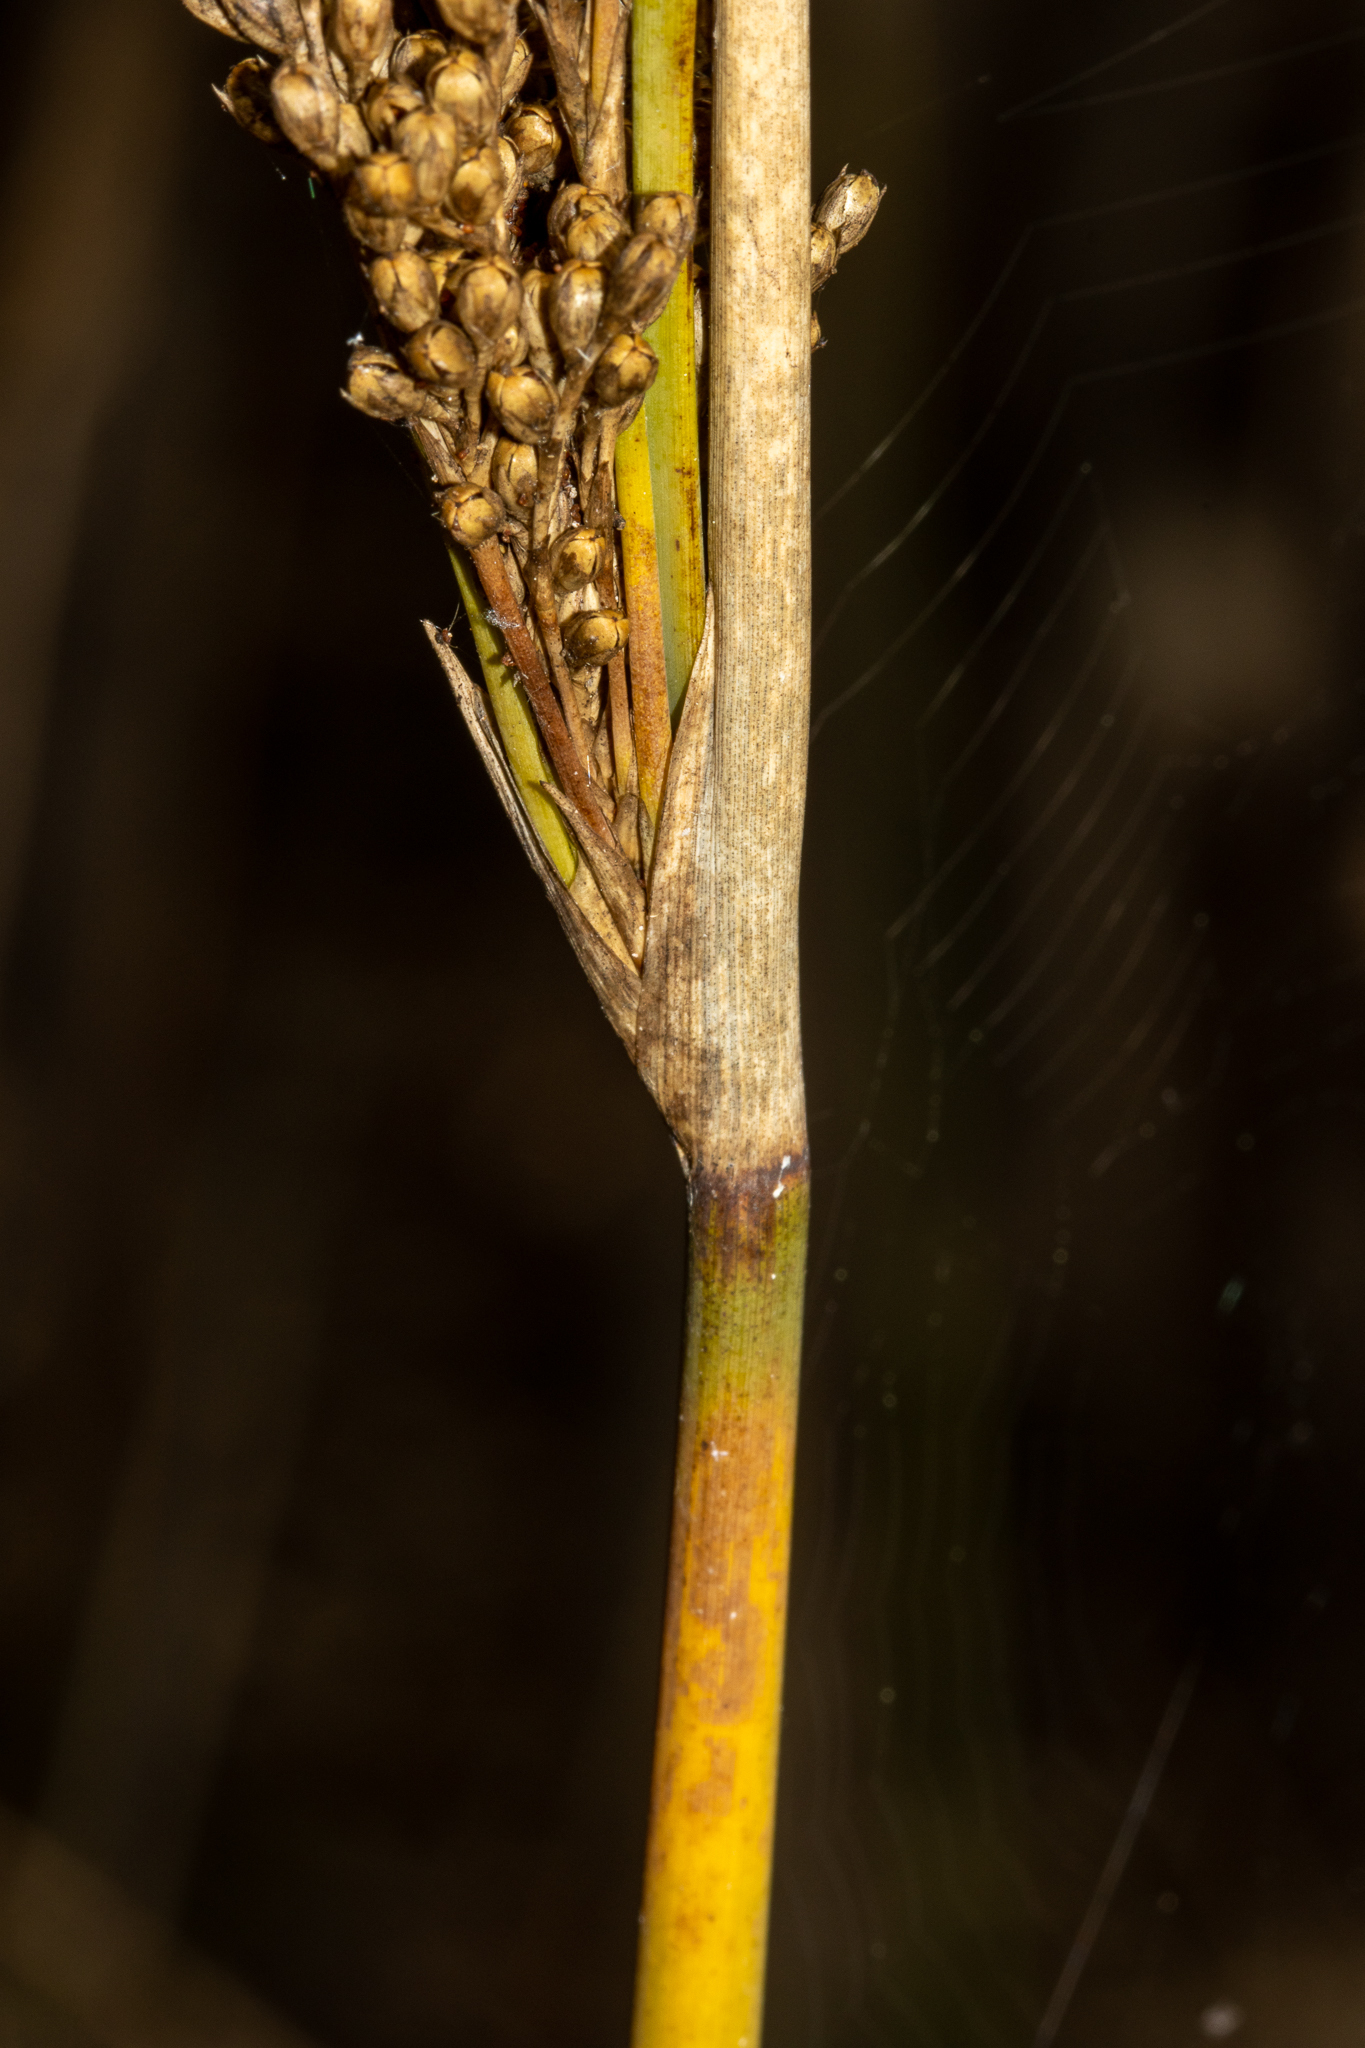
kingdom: Plantae
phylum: Tracheophyta
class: Liliopsida
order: Poales
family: Juncaceae
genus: Juncus
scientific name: Juncus pallidus
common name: Great soft-rush
